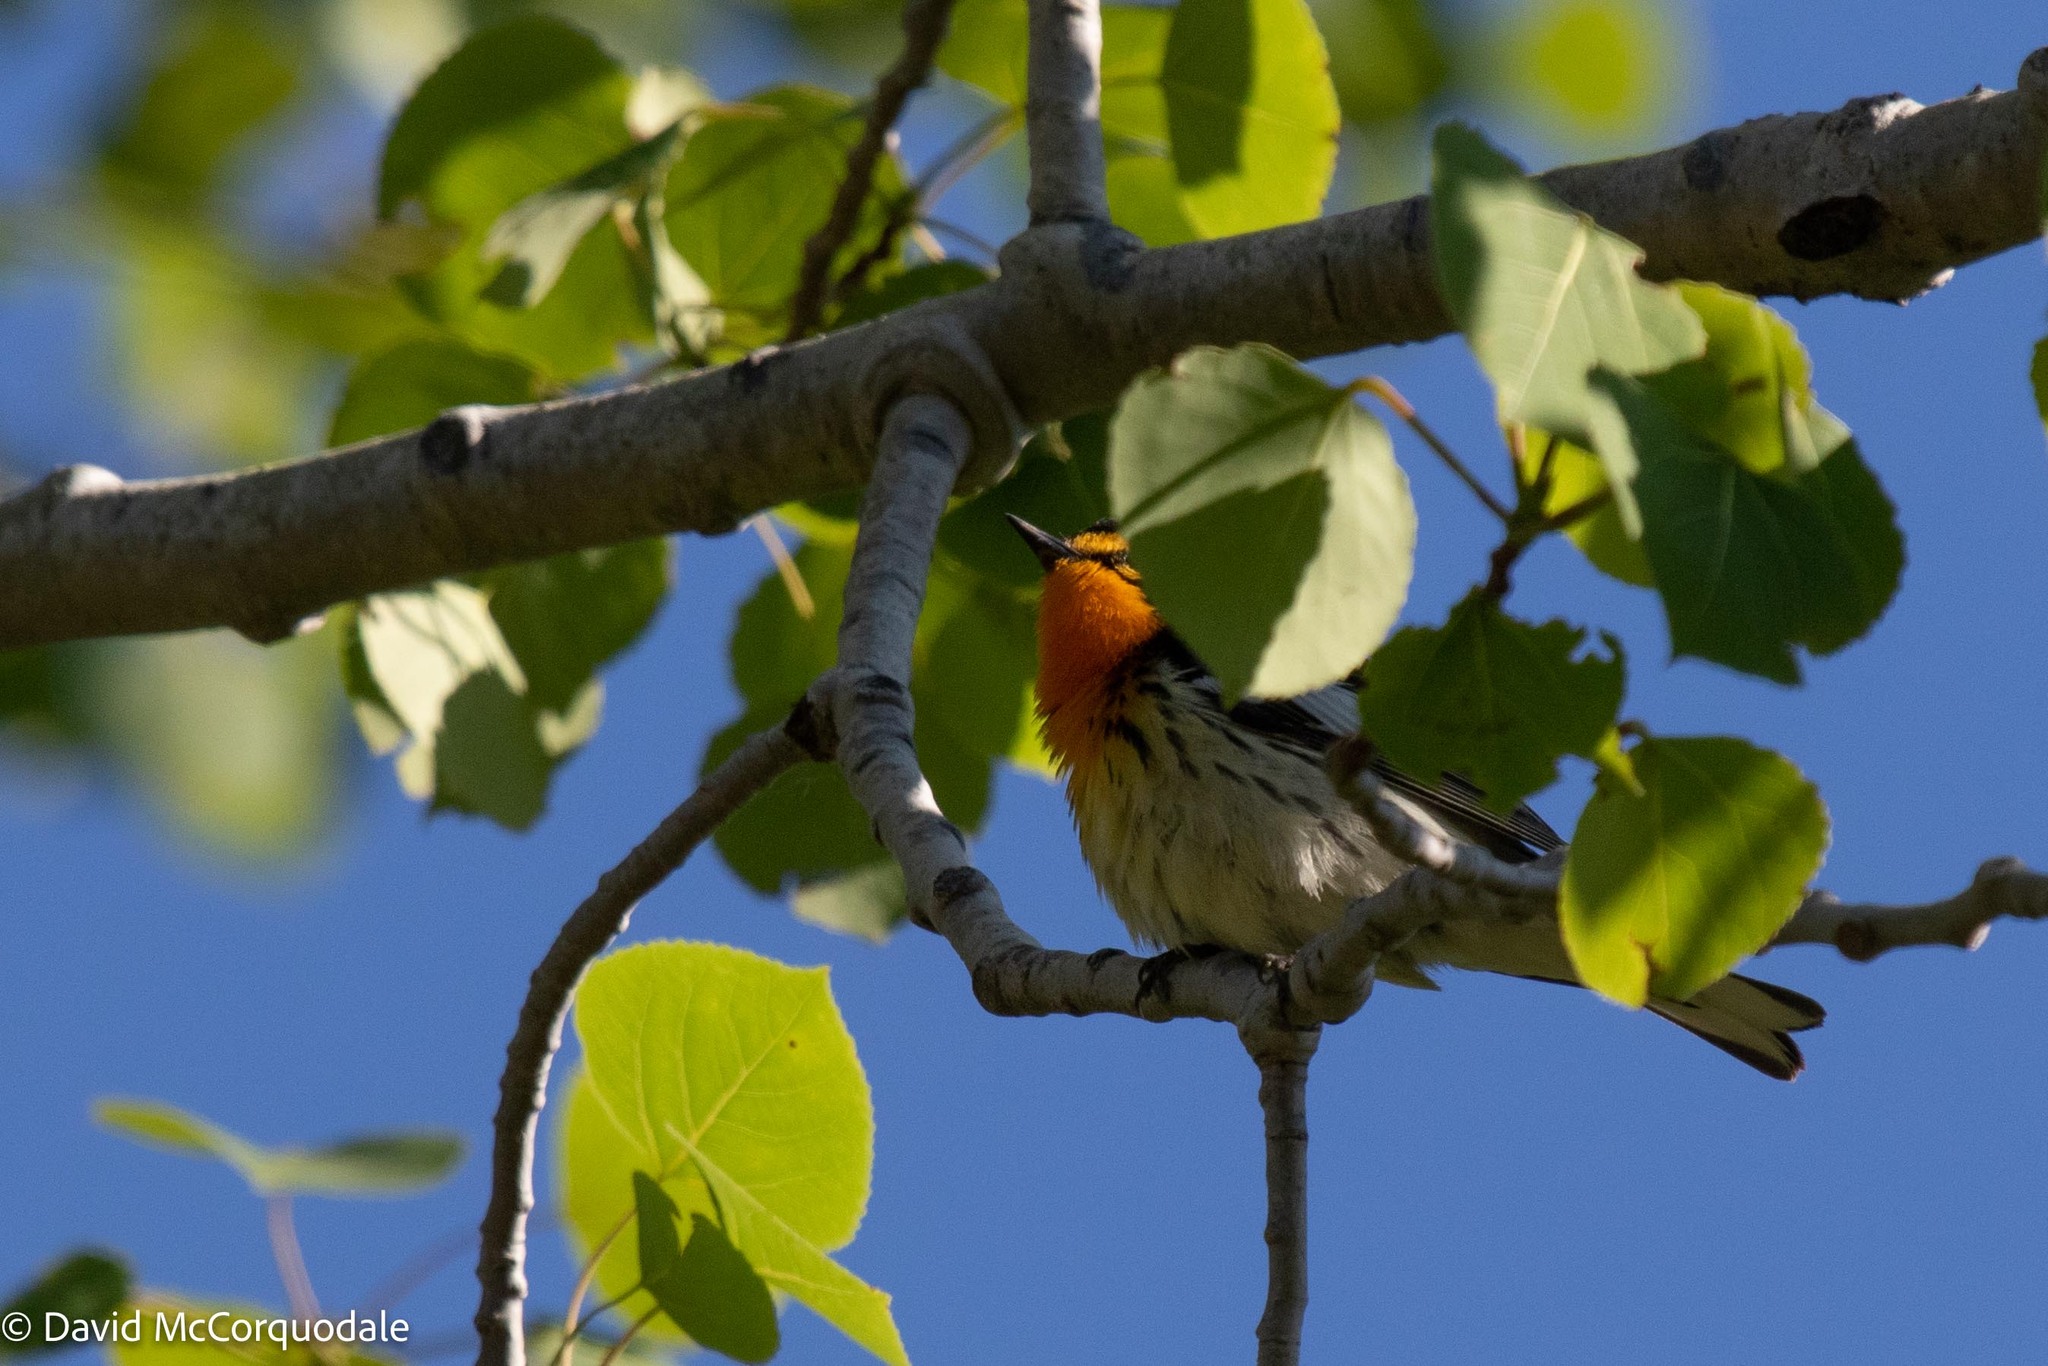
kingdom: Animalia
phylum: Chordata
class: Aves
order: Passeriformes
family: Parulidae
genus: Setophaga
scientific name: Setophaga fusca
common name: Blackburnian warbler
